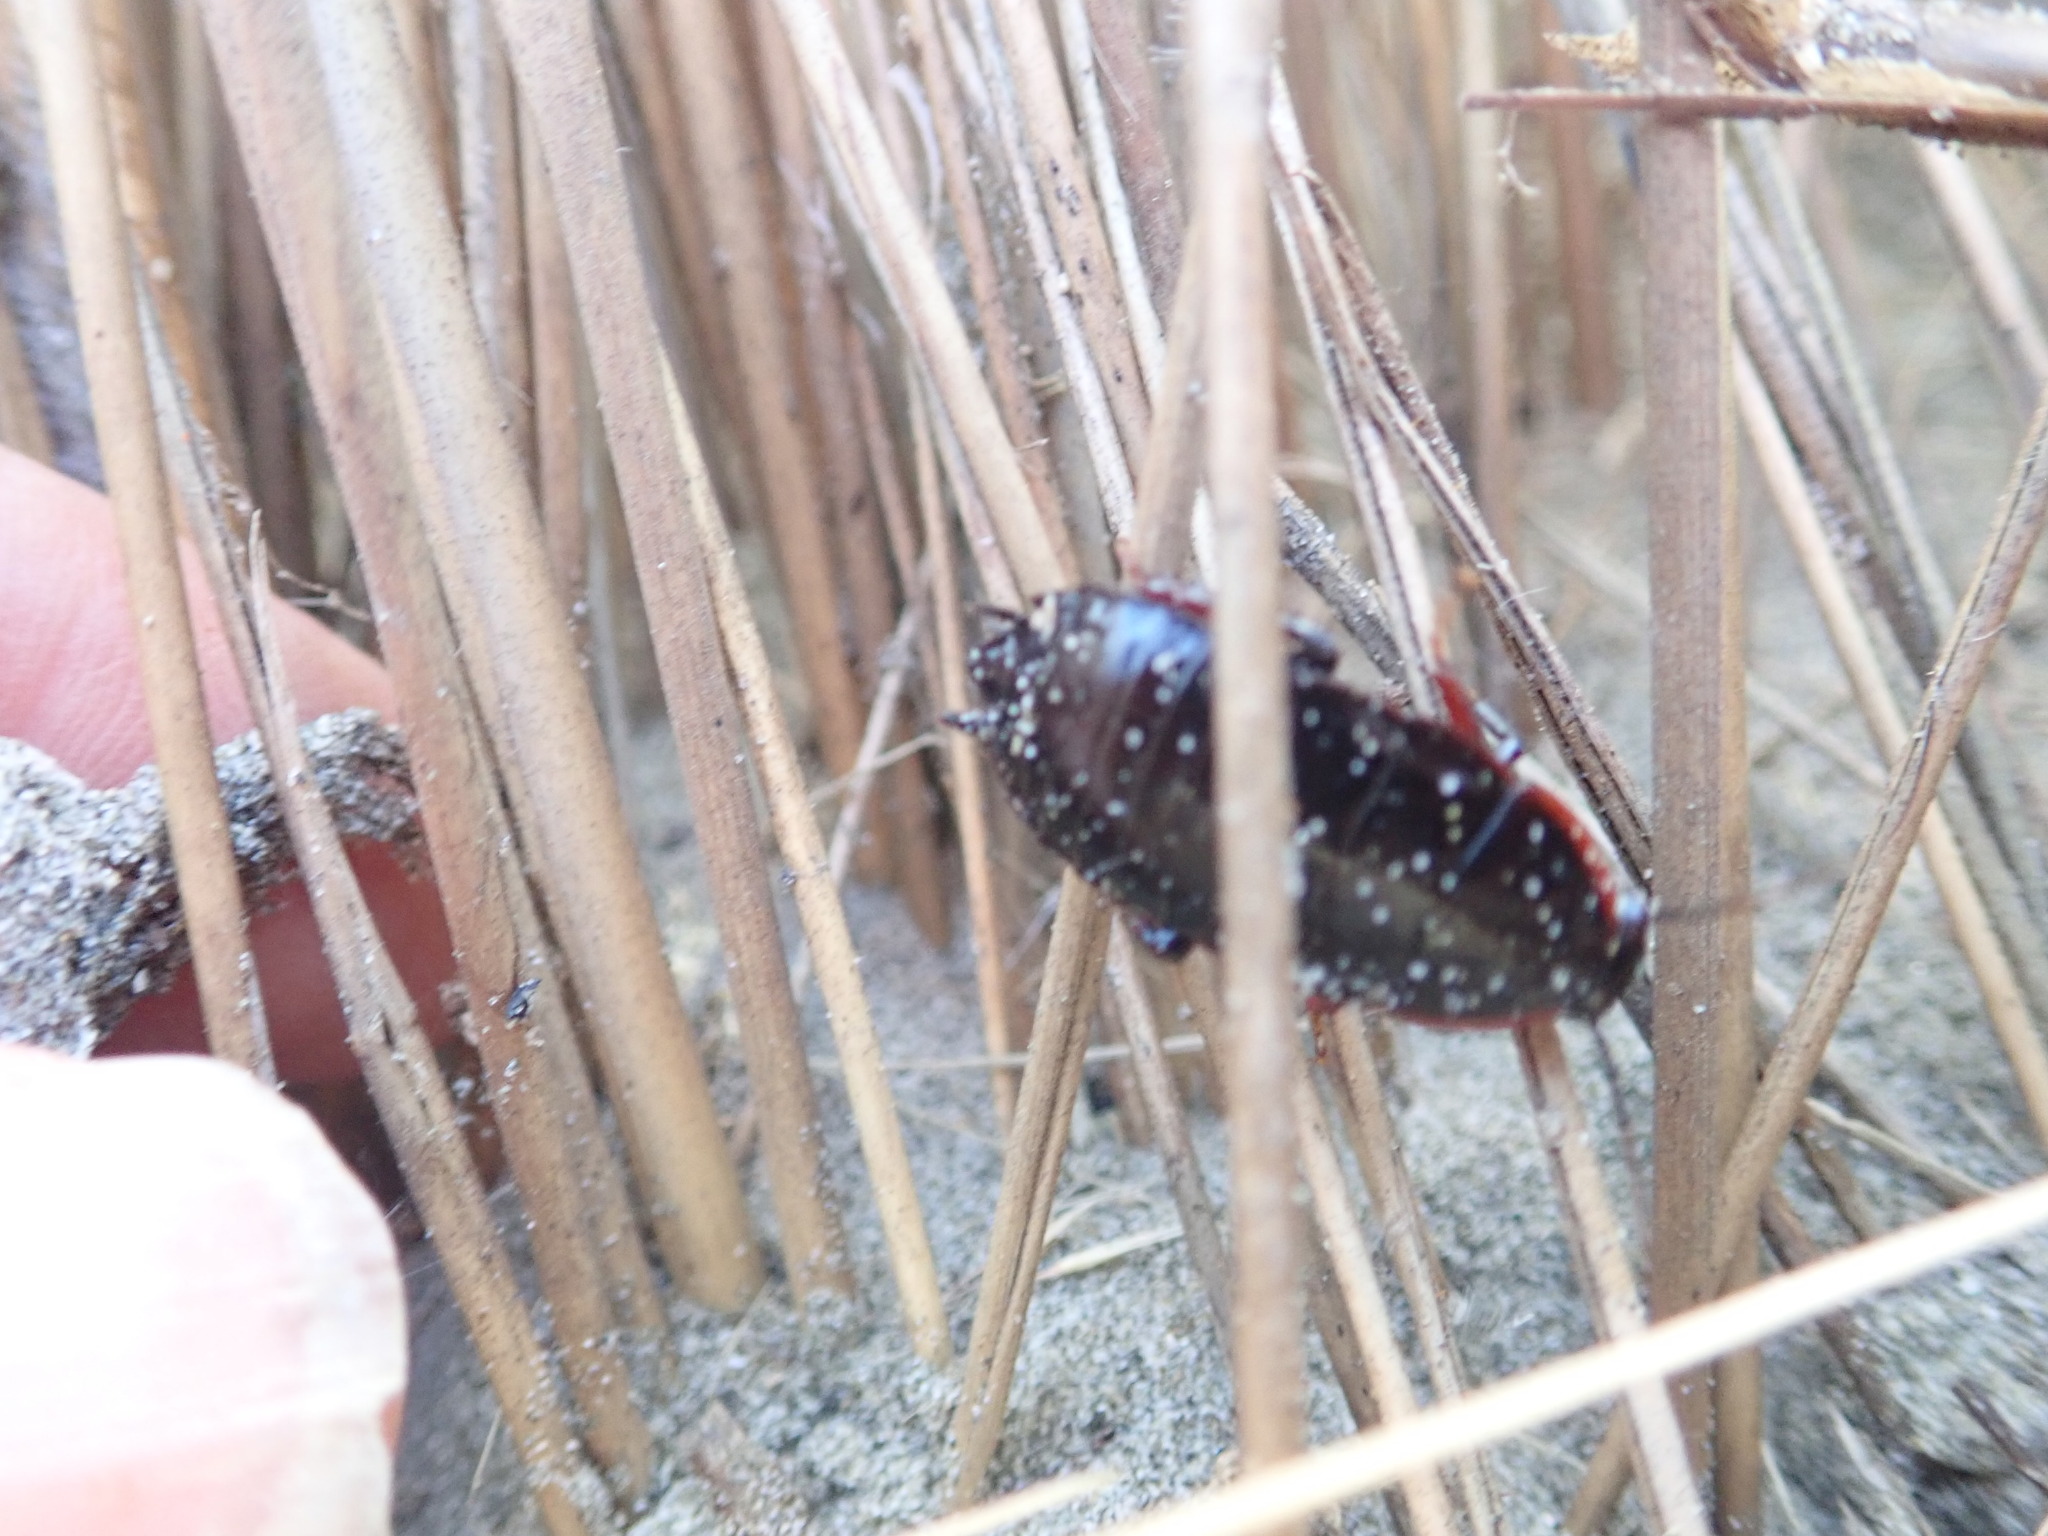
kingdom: Animalia
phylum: Arthropoda
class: Insecta
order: Blattodea
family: Blattidae
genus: Maoriblatta
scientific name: Maoriblatta novaeseelandiae
